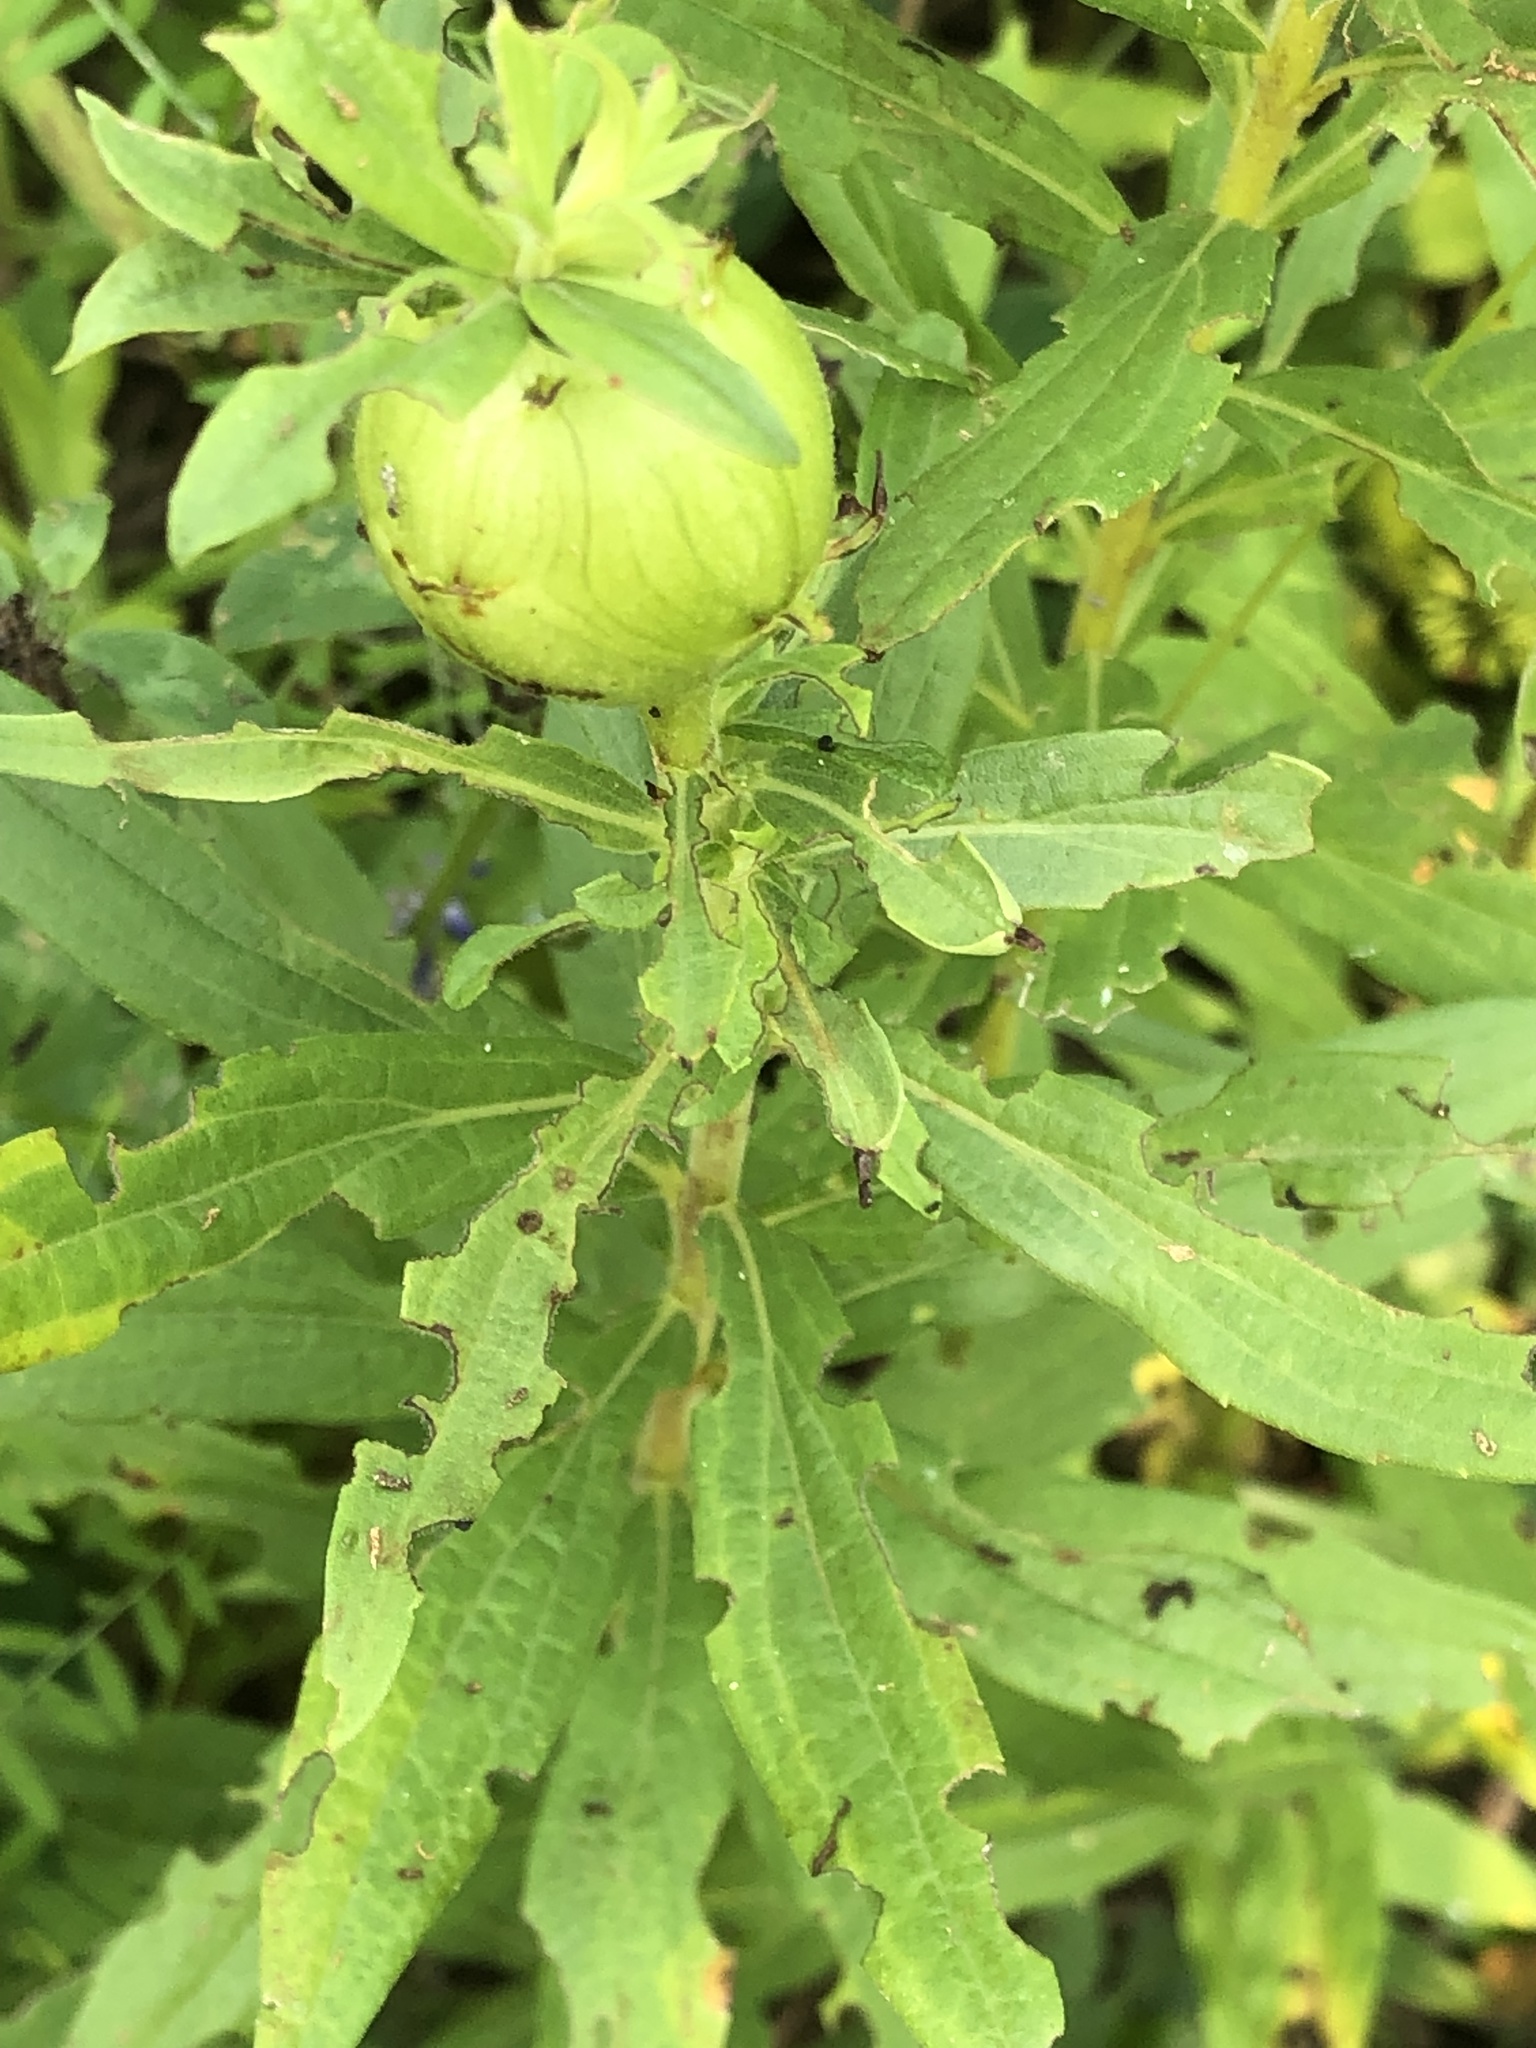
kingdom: Animalia
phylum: Arthropoda
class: Insecta
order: Diptera
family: Tephritidae
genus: Eurosta
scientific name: Eurosta solidaginis
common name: Goldenrod gall fly
